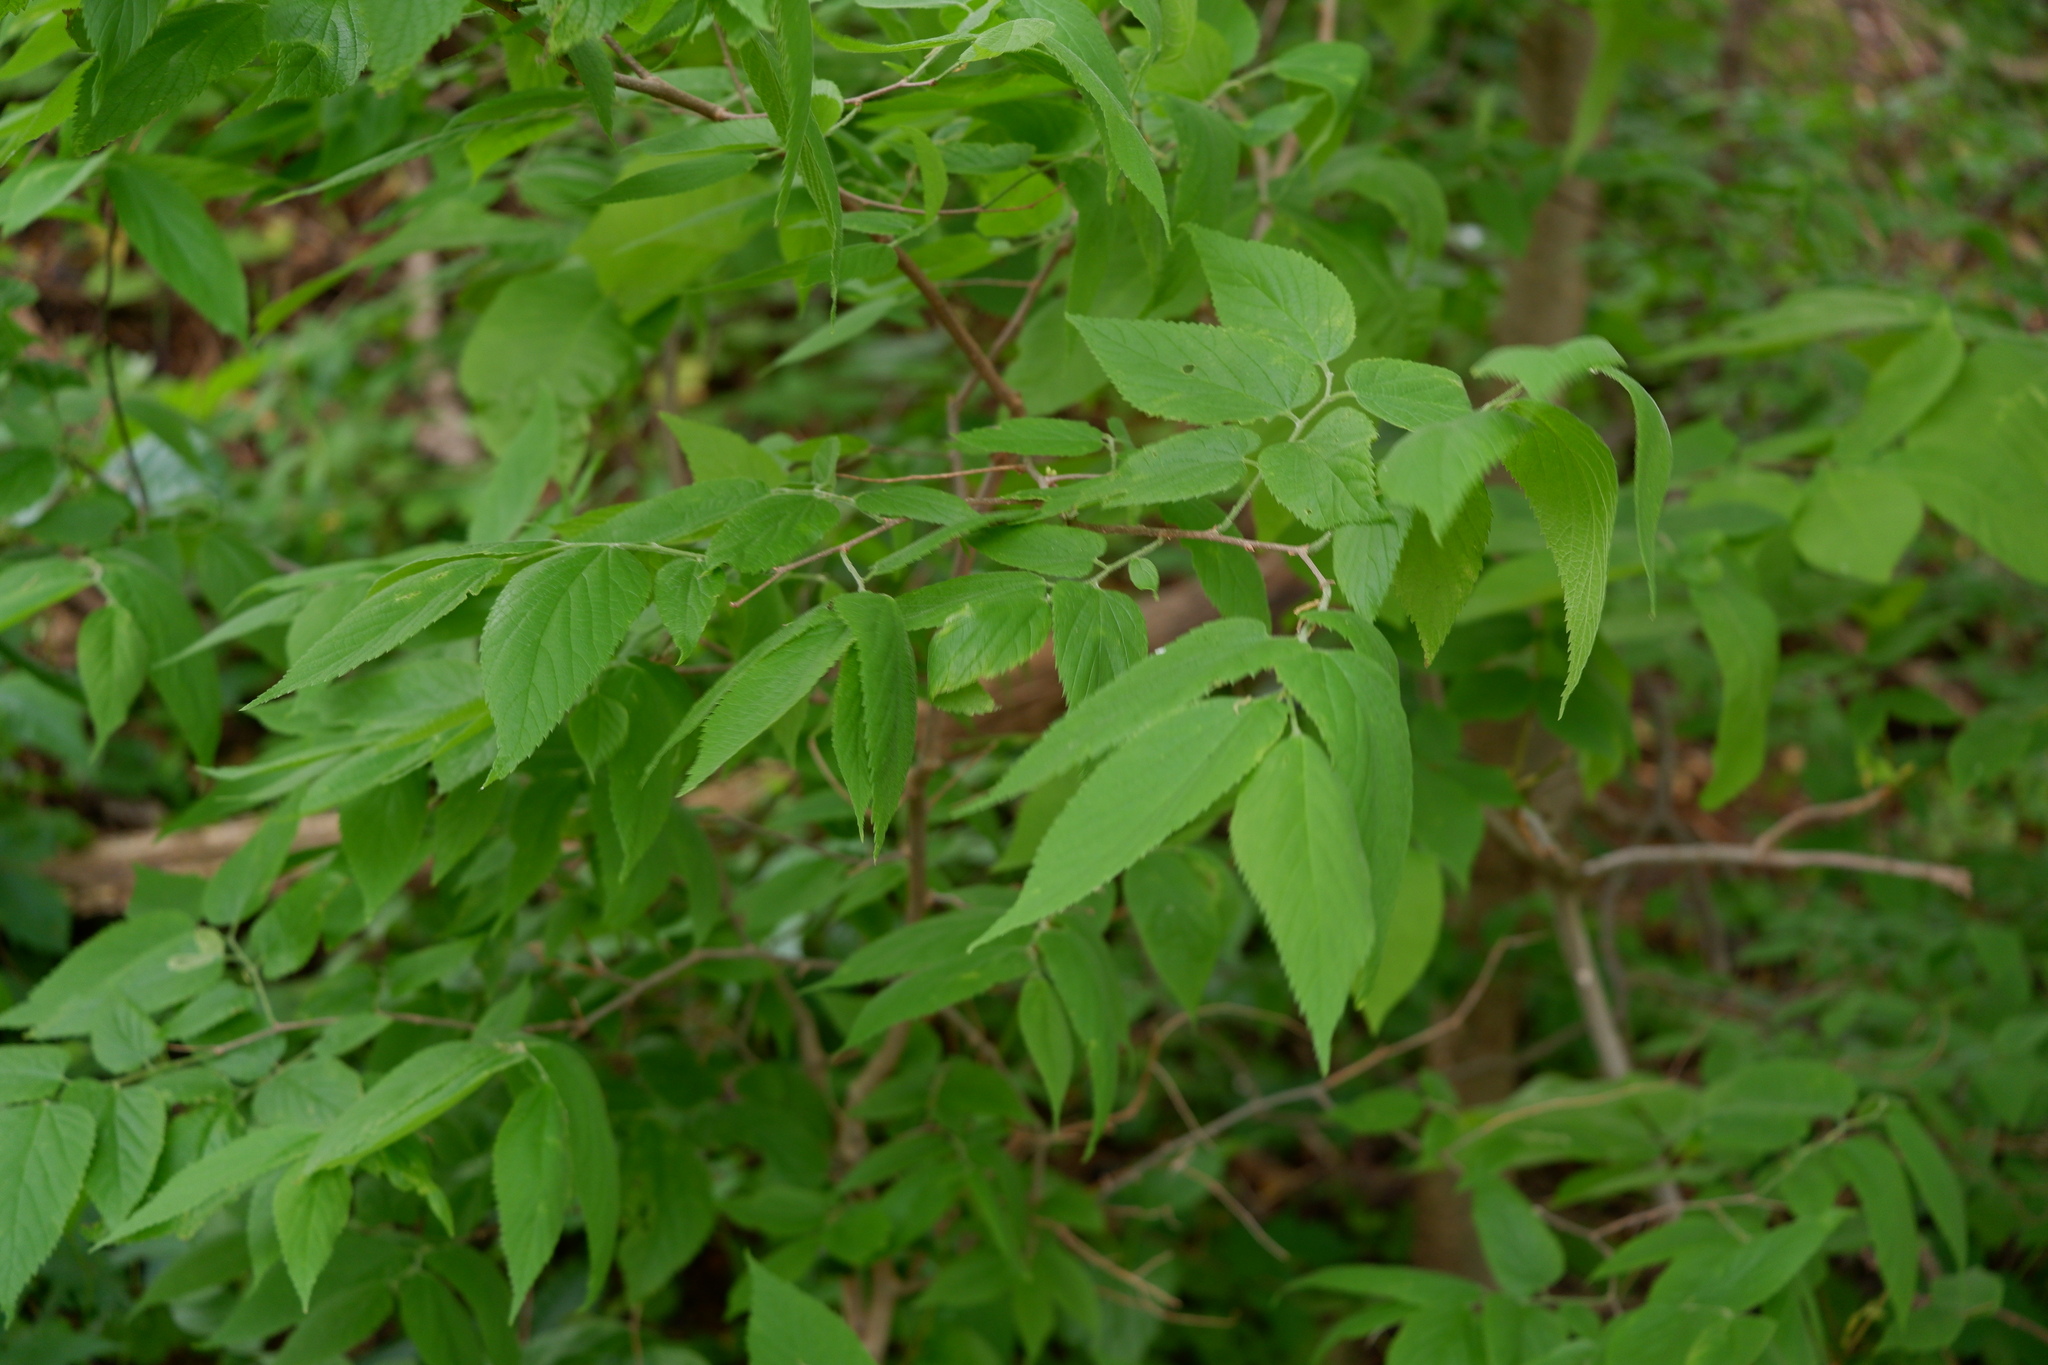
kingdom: Plantae
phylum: Tracheophyta
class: Magnoliopsida
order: Rosales
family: Cannabaceae
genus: Celtis
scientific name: Celtis occidentalis
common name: Common hackberry
